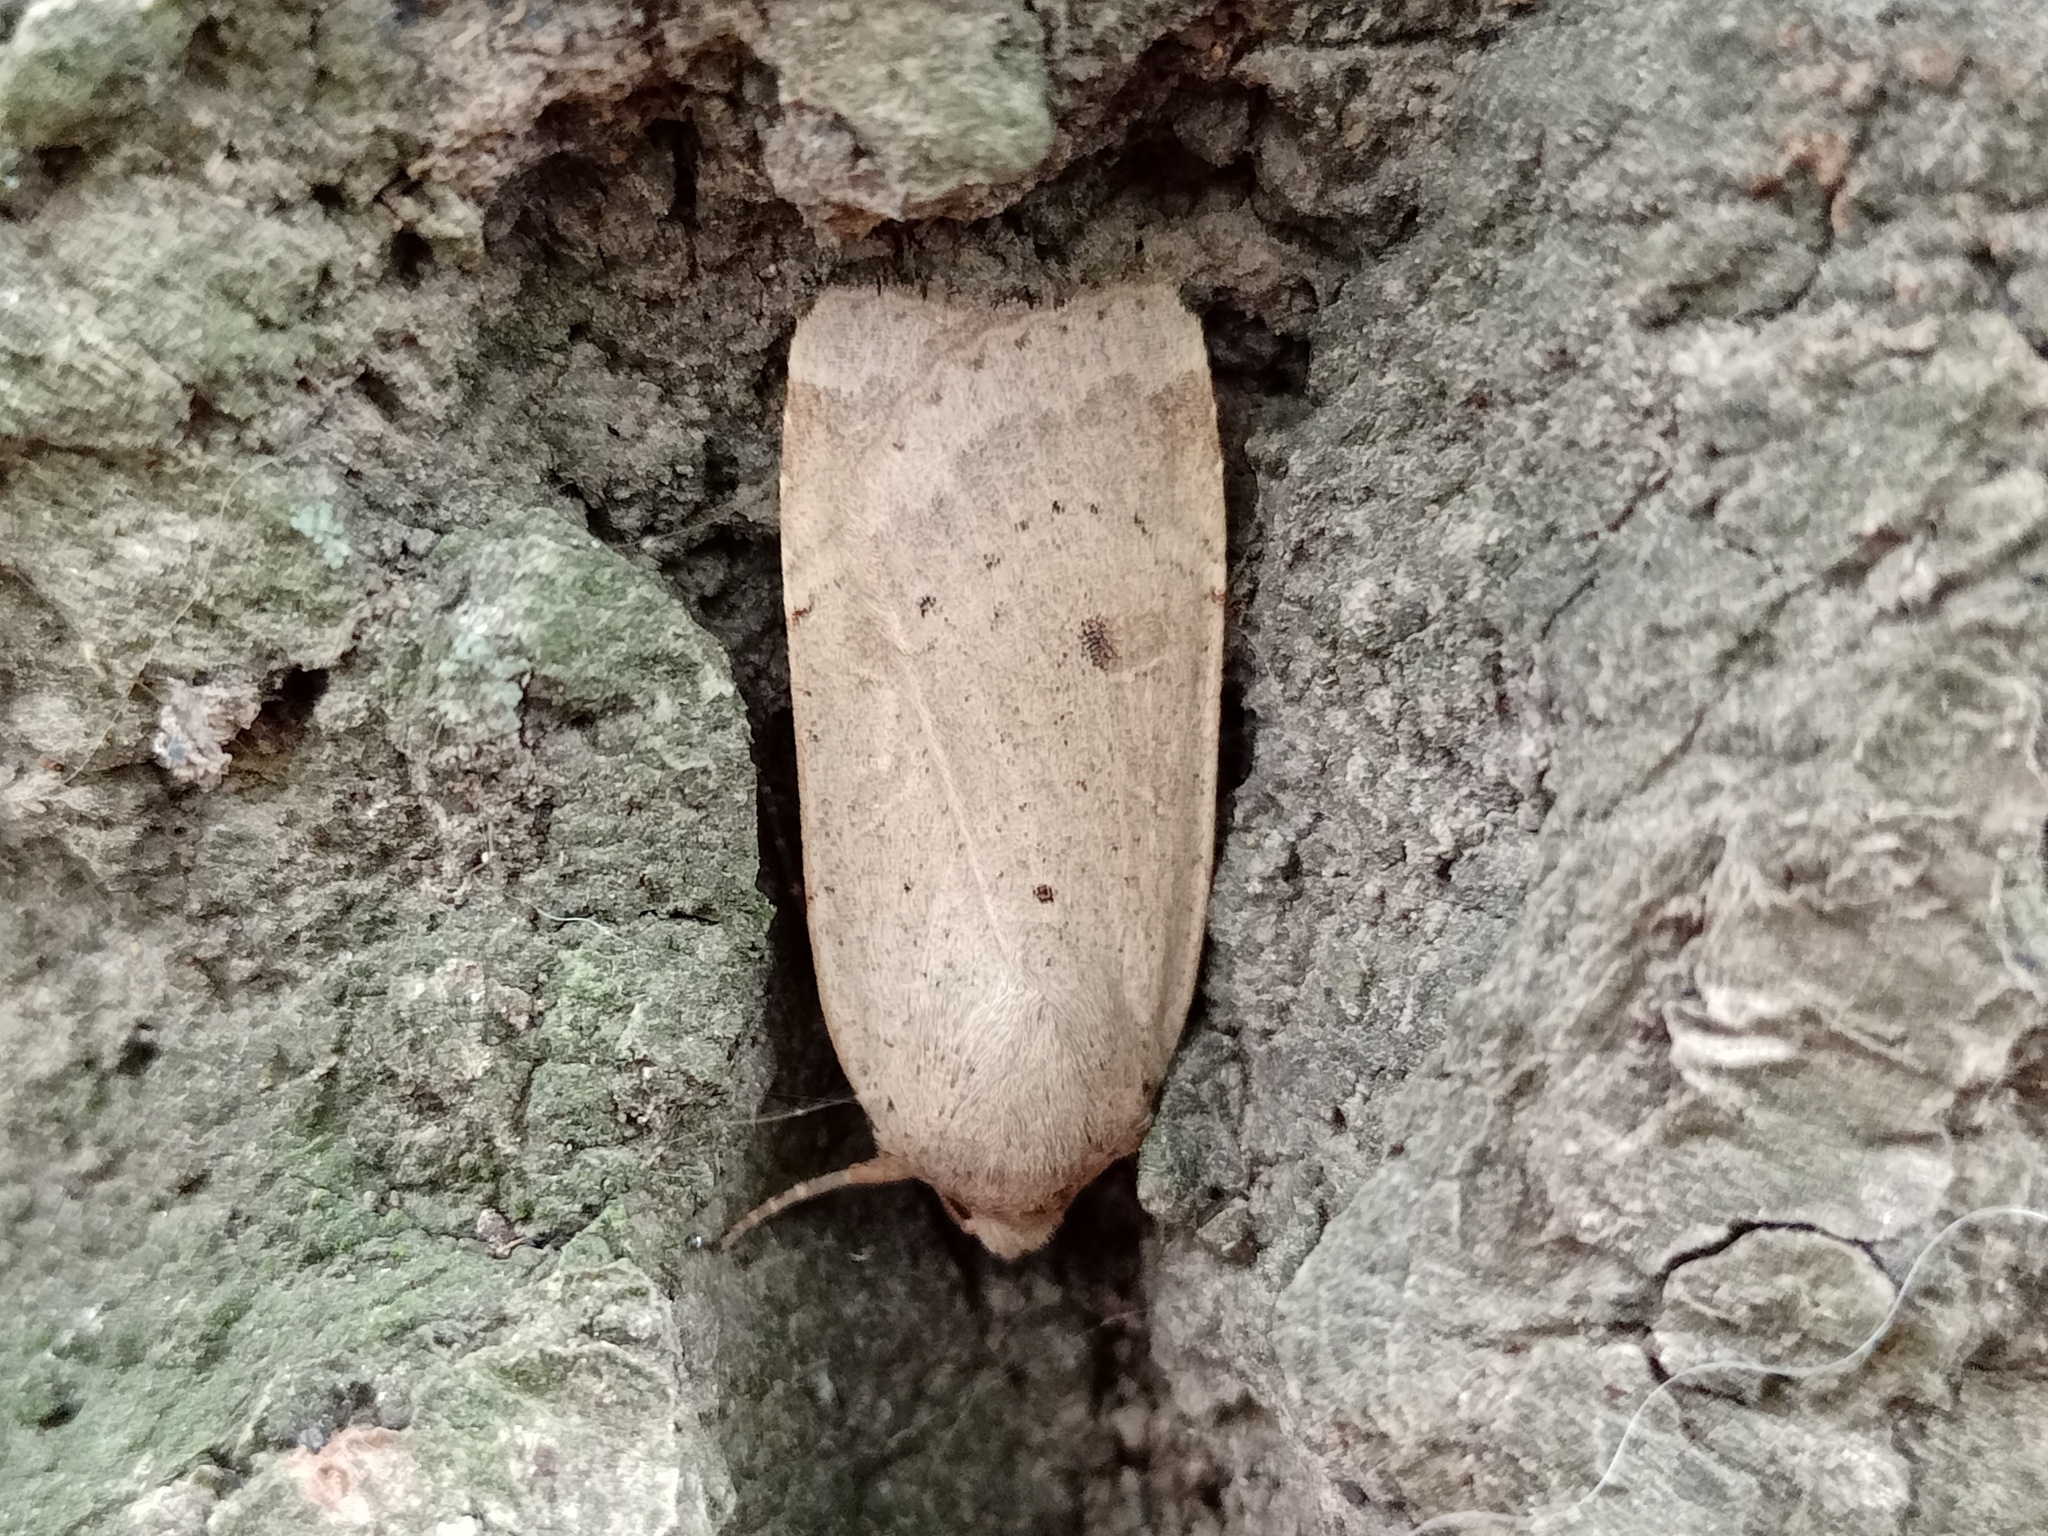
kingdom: Animalia
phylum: Arthropoda
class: Insecta
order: Lepidoptera
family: Noctuidae
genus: Noctua
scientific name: Noctua comes
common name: Lesser yellow underwing
